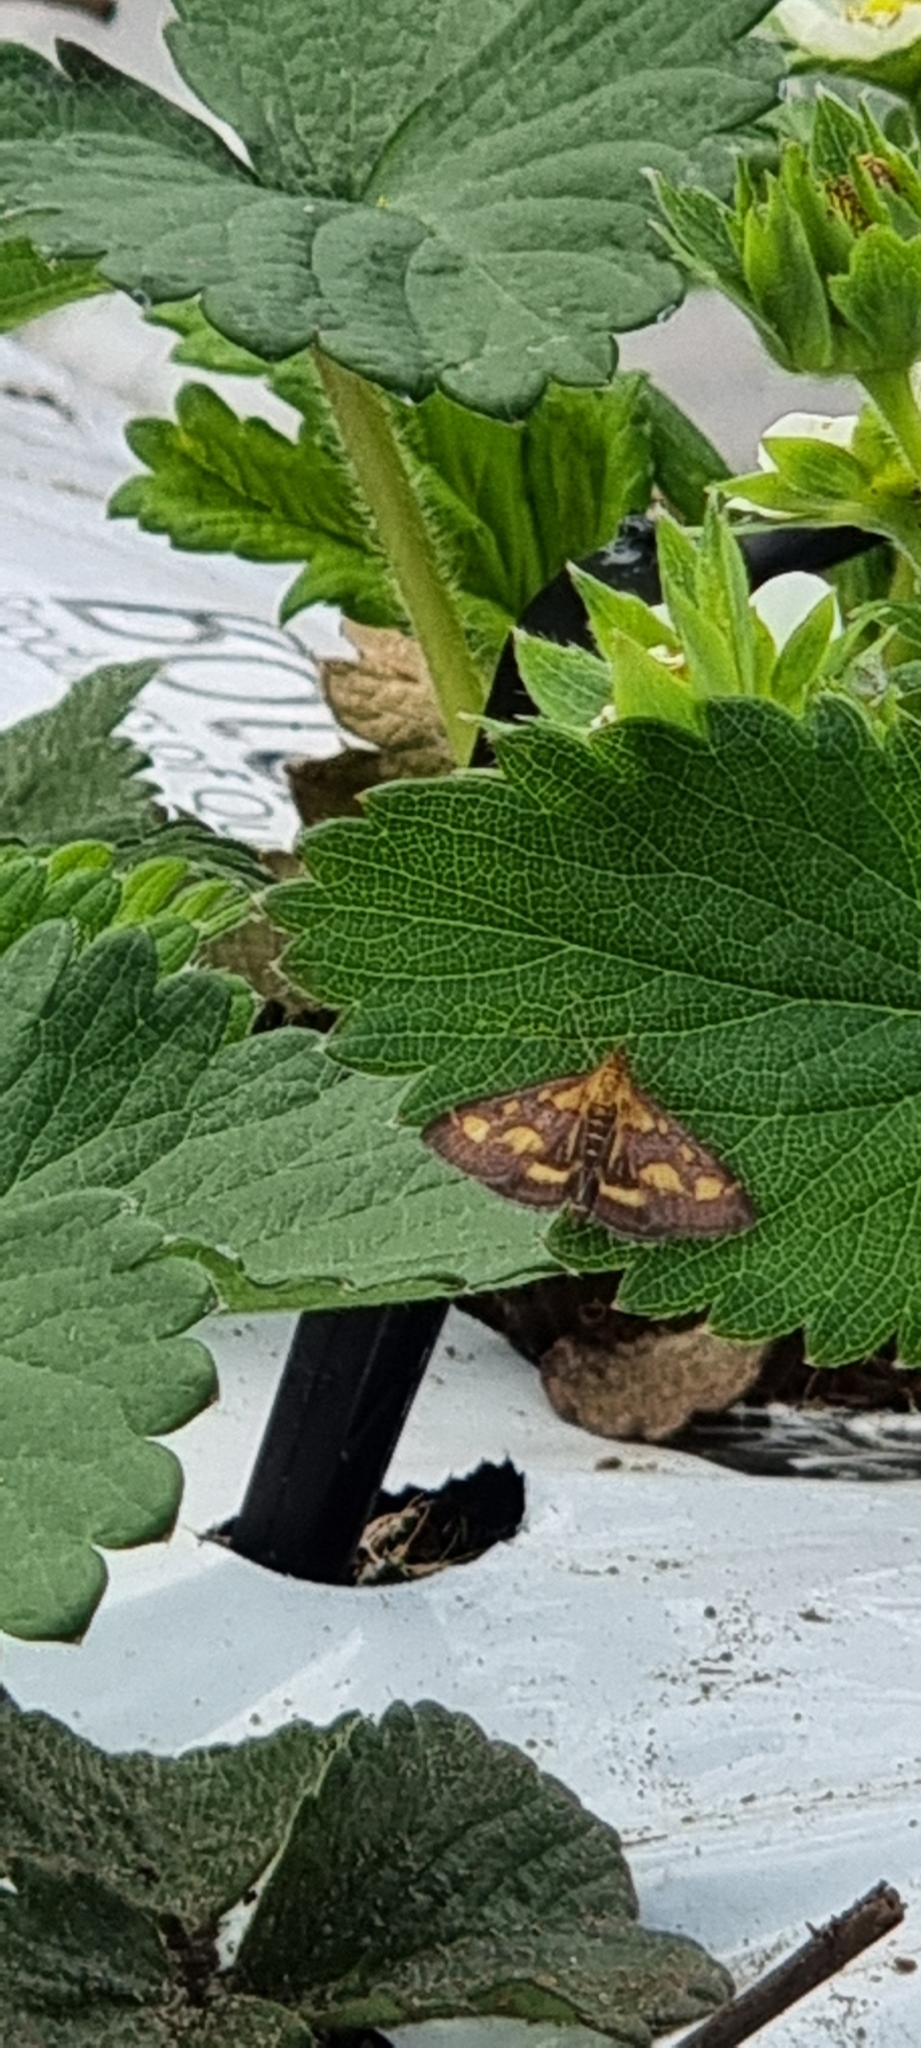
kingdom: Animalia
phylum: Arthropoda
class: Insecta
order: Lepidoptera
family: Crambidae
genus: Pyrausta
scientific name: Pyrausta purpuralis
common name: Common purple & gold
